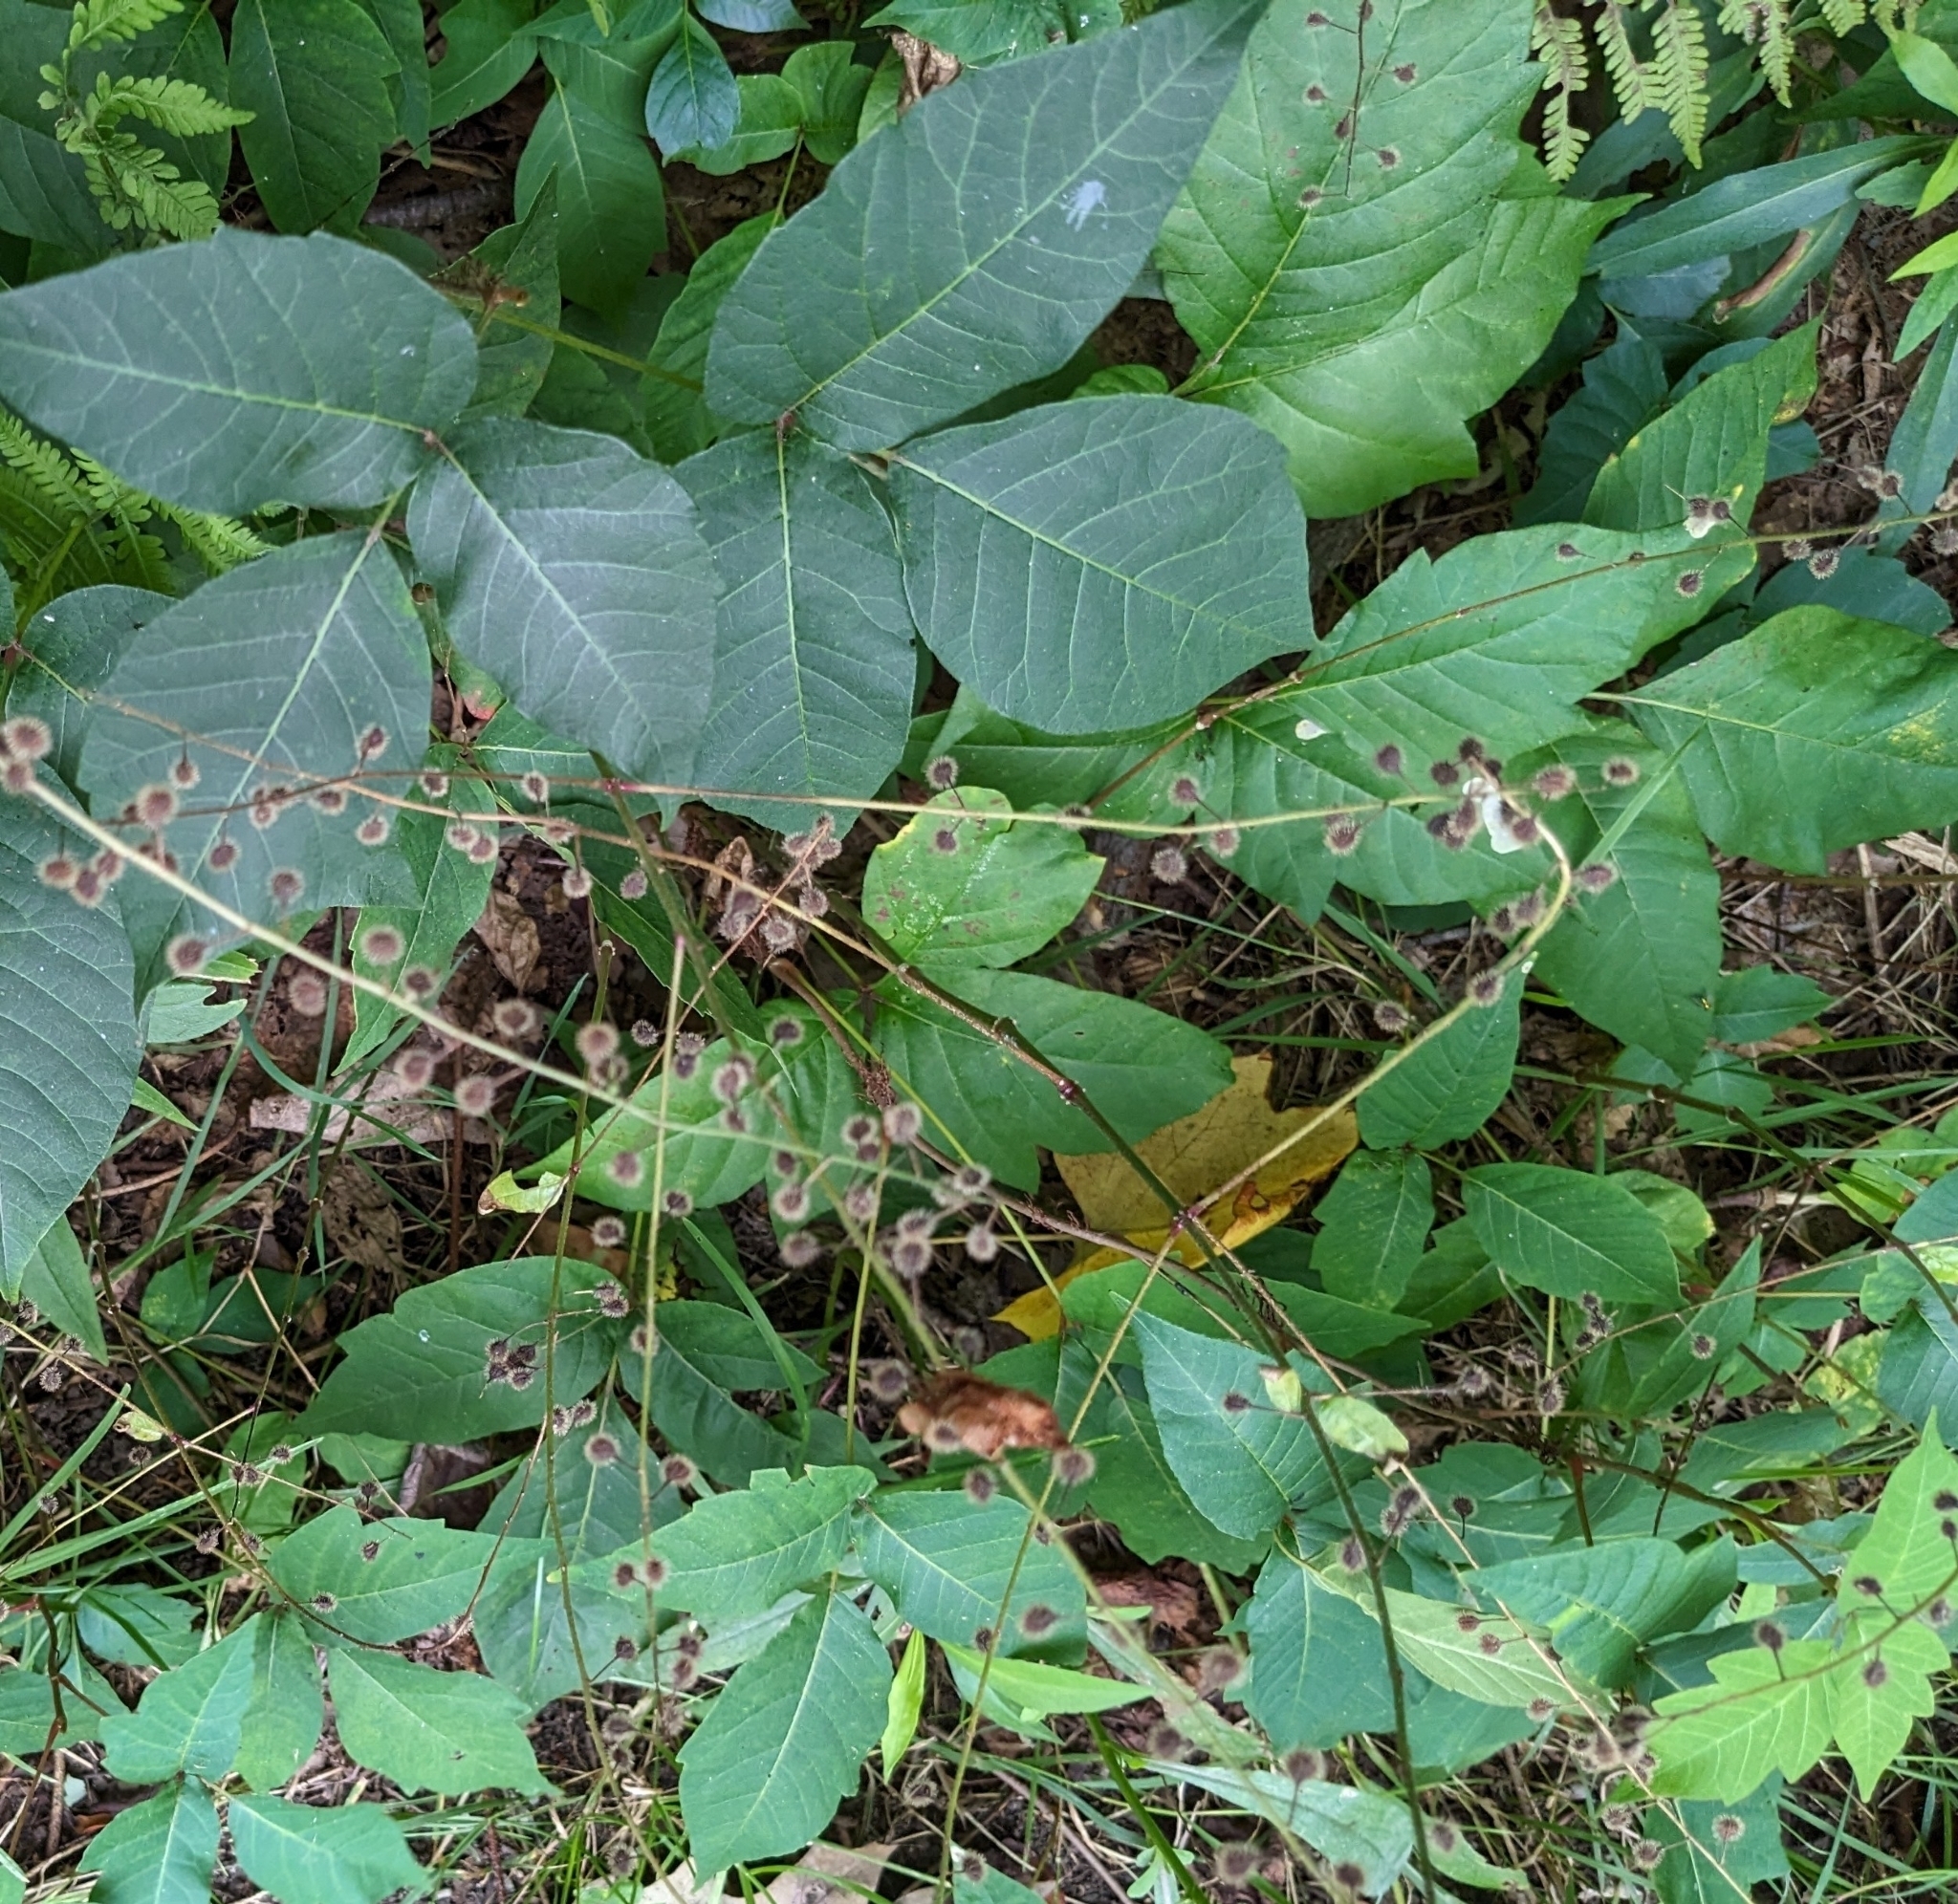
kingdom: Plantae
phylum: Tracheophyta
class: Magnoliopsida
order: Ericales
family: Balsaminaceae
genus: Impatiens
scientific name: Impatiens capensis
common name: Orange balsam
